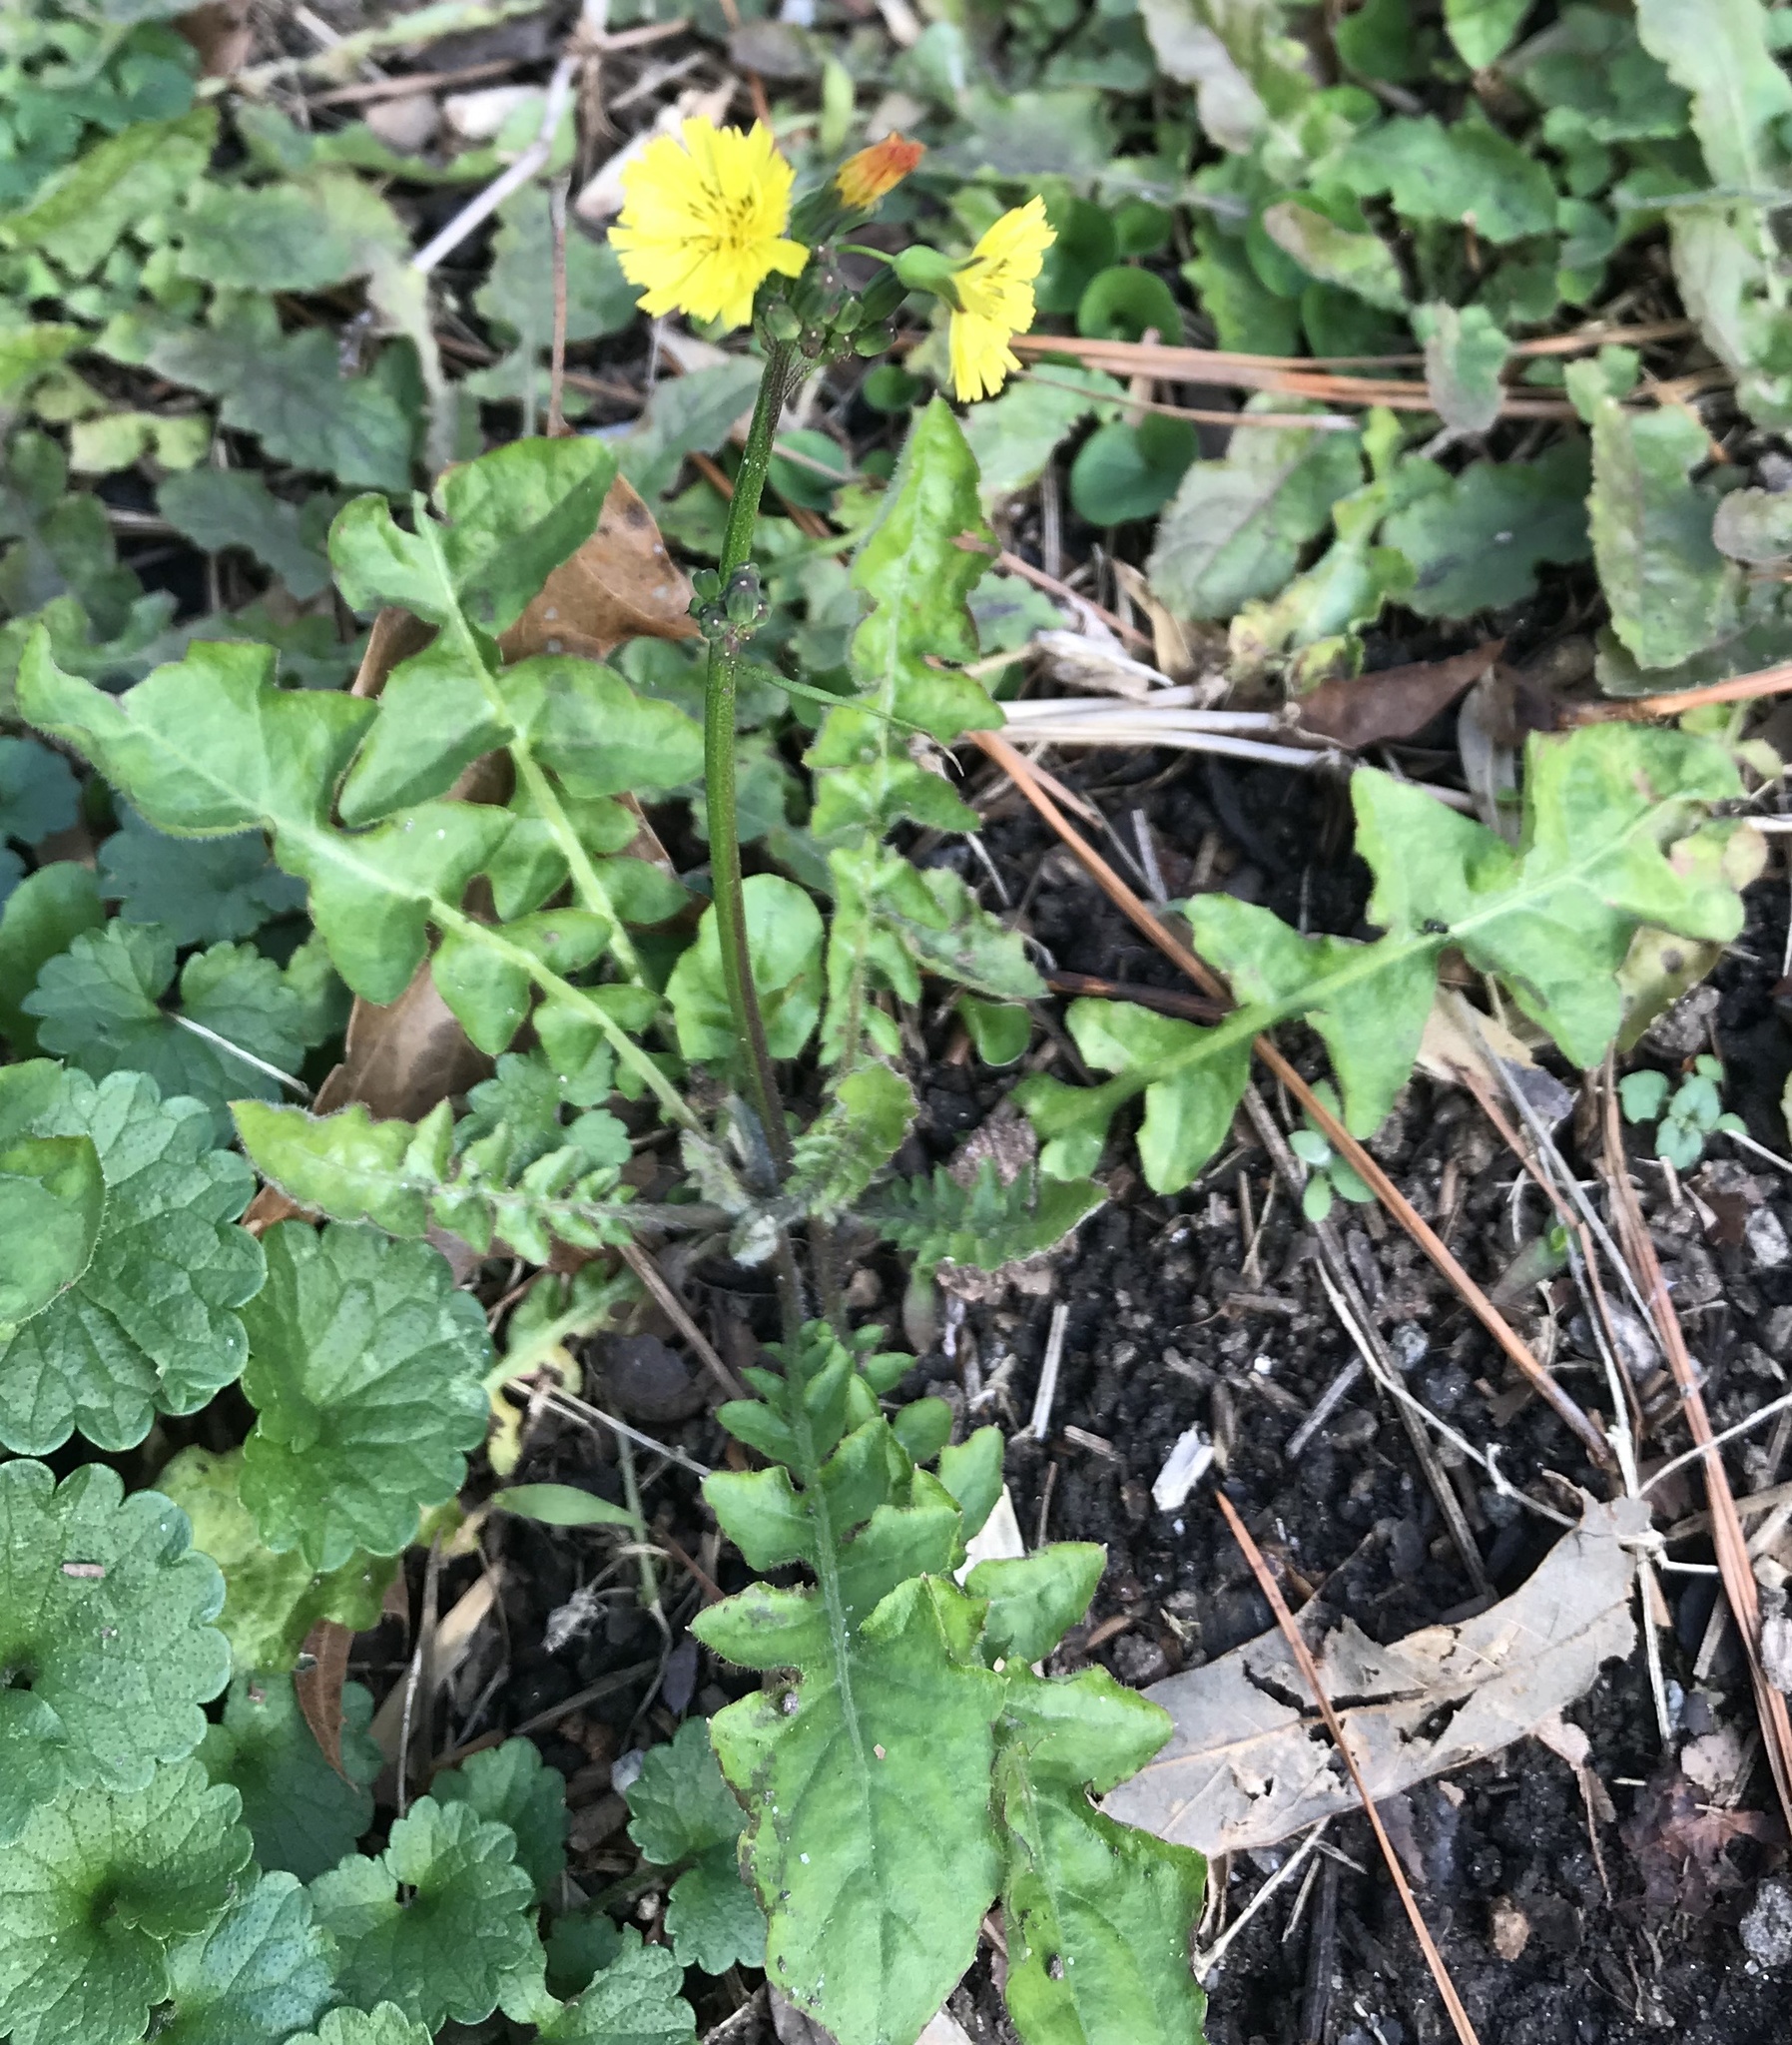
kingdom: Plantae
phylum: Tracheophyta
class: Magnoliopsida
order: Asterales
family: Asteraceae
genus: Youngia
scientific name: Youngia japonica
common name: Oriental false hawksbeard
